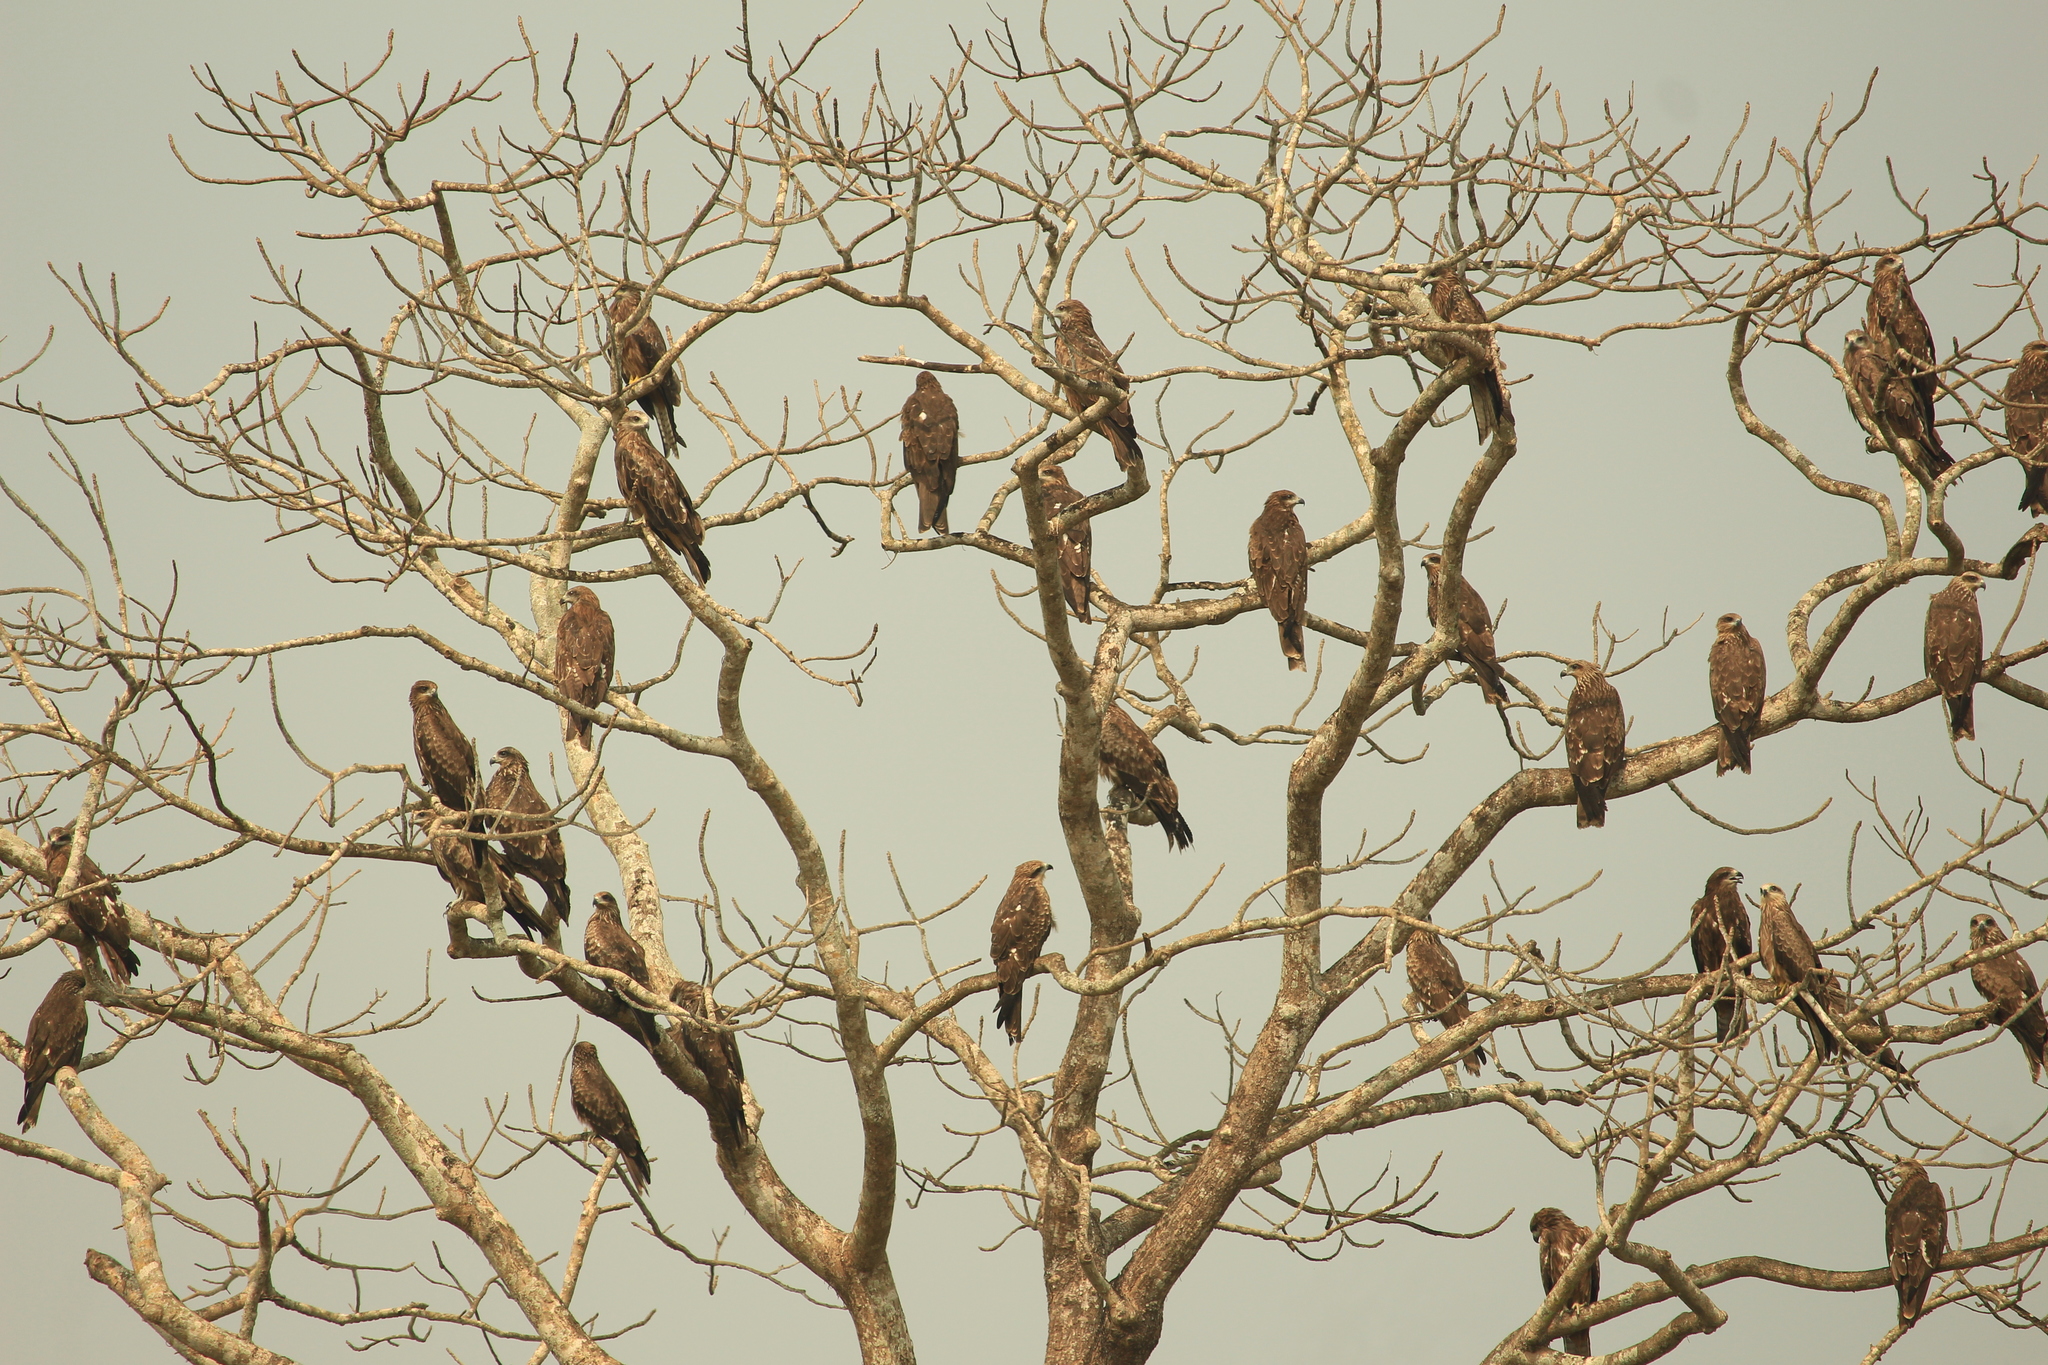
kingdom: Animalia
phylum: Chordata
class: Aves
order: Accipitriformes
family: Accipitridae
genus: Milvus
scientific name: Milvus migrans
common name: Black kite
